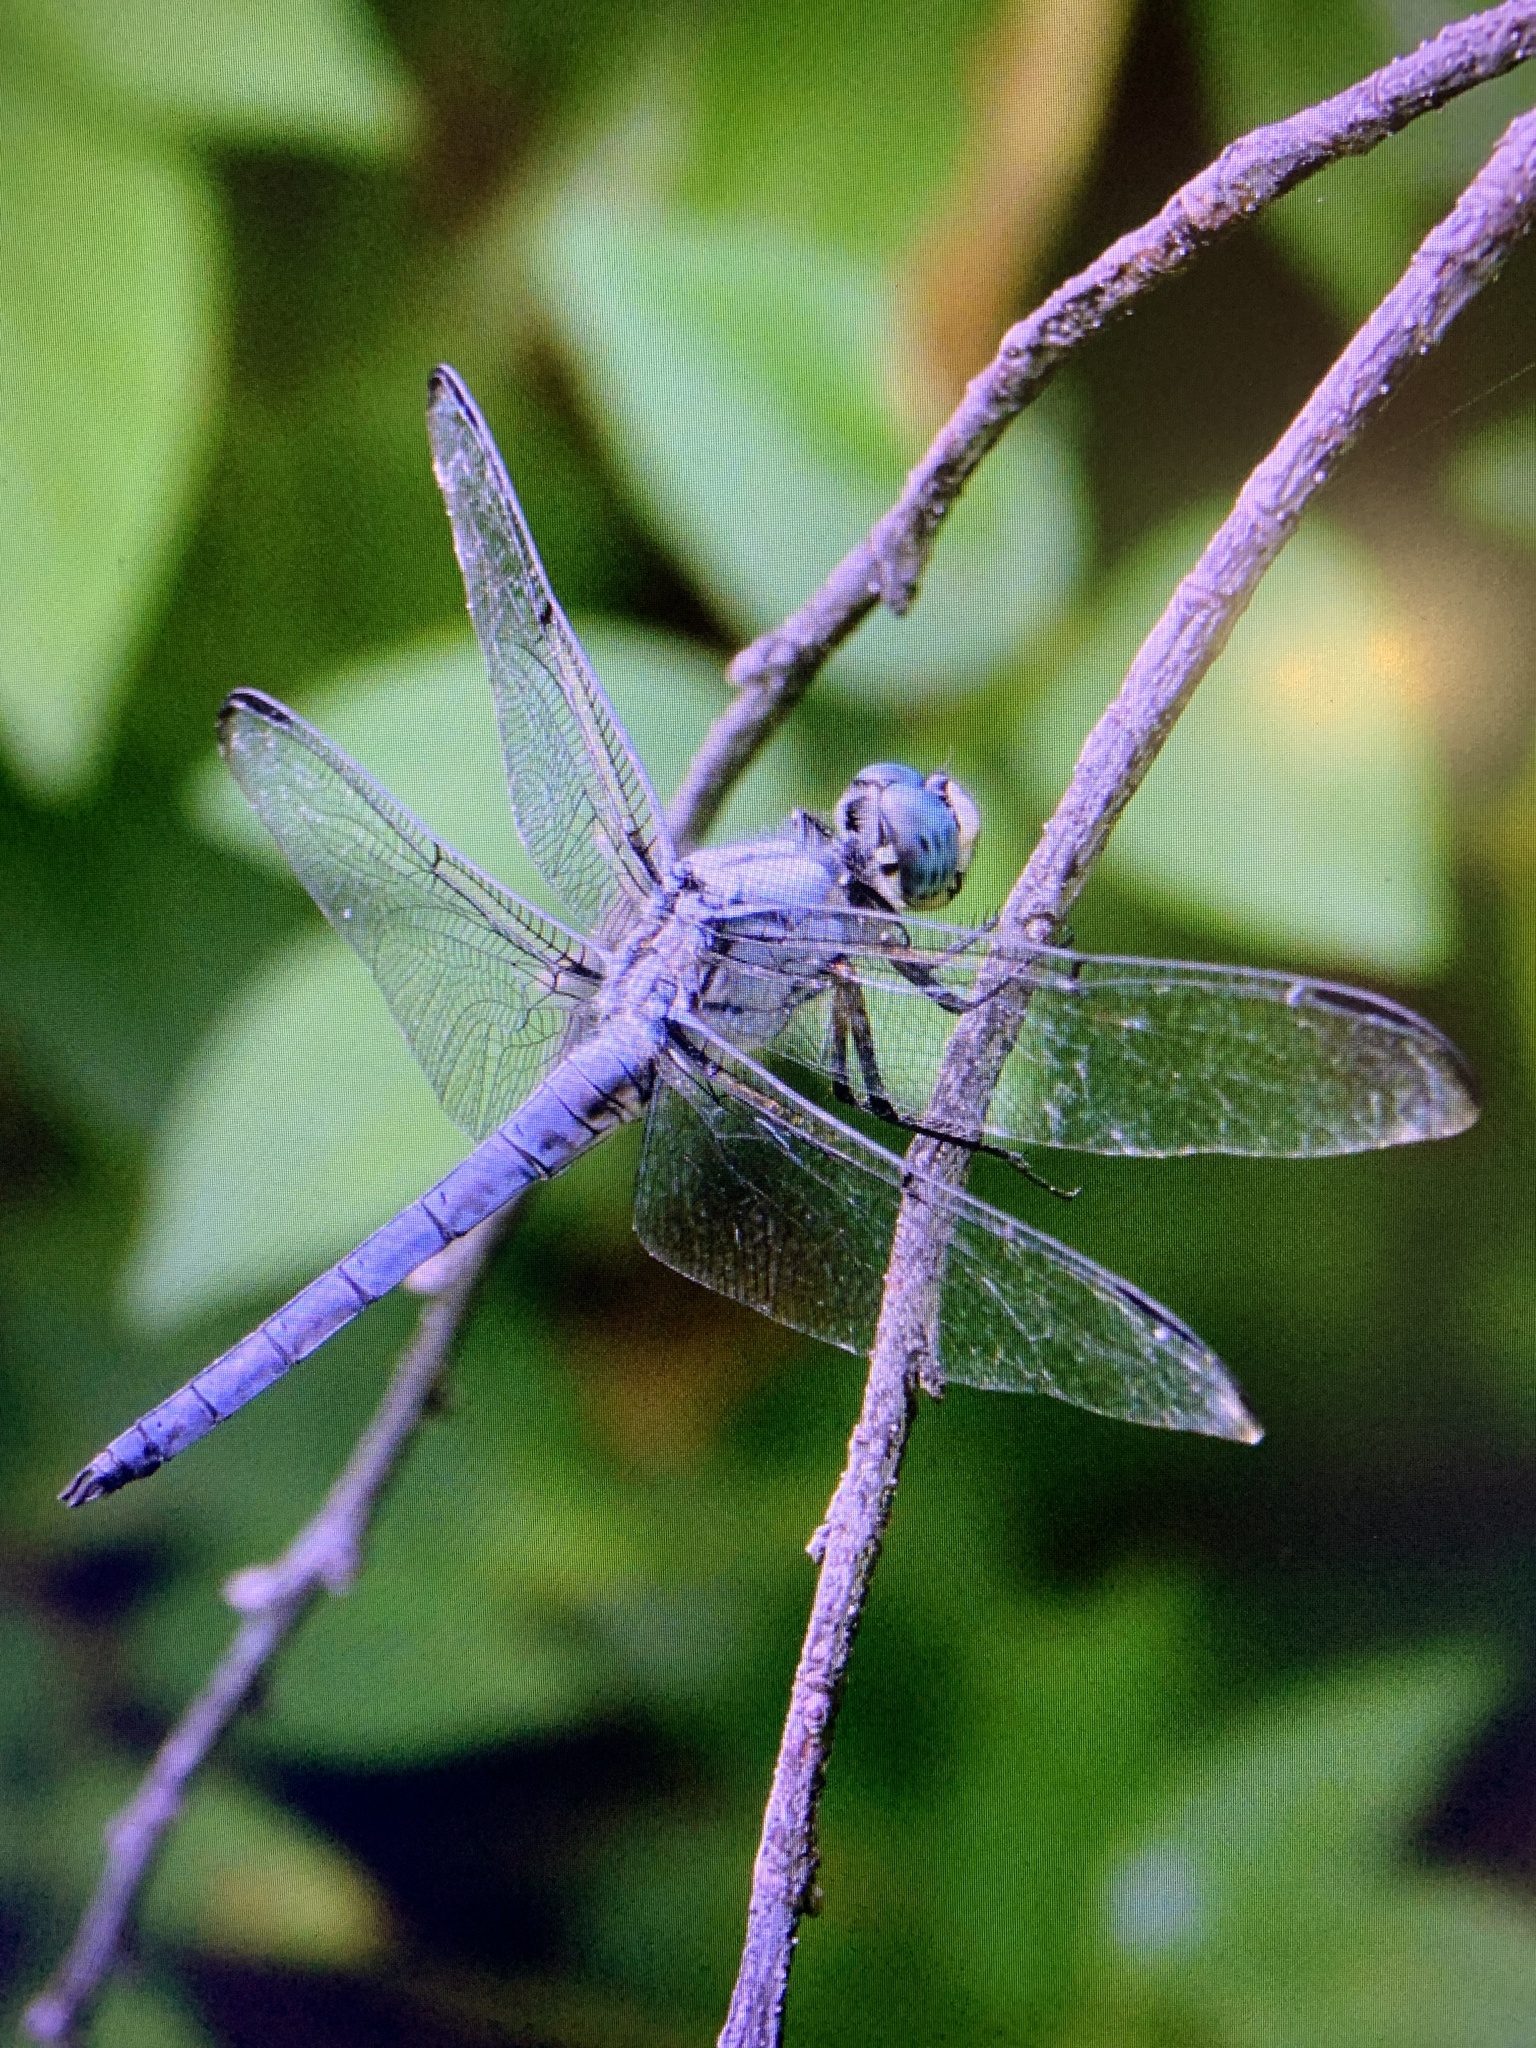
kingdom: Animalia
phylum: Arthropoda
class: Insecta
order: Odonata
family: Libellulidae
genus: Libellula
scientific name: Libellula vibrans
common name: Great blue skimmer
